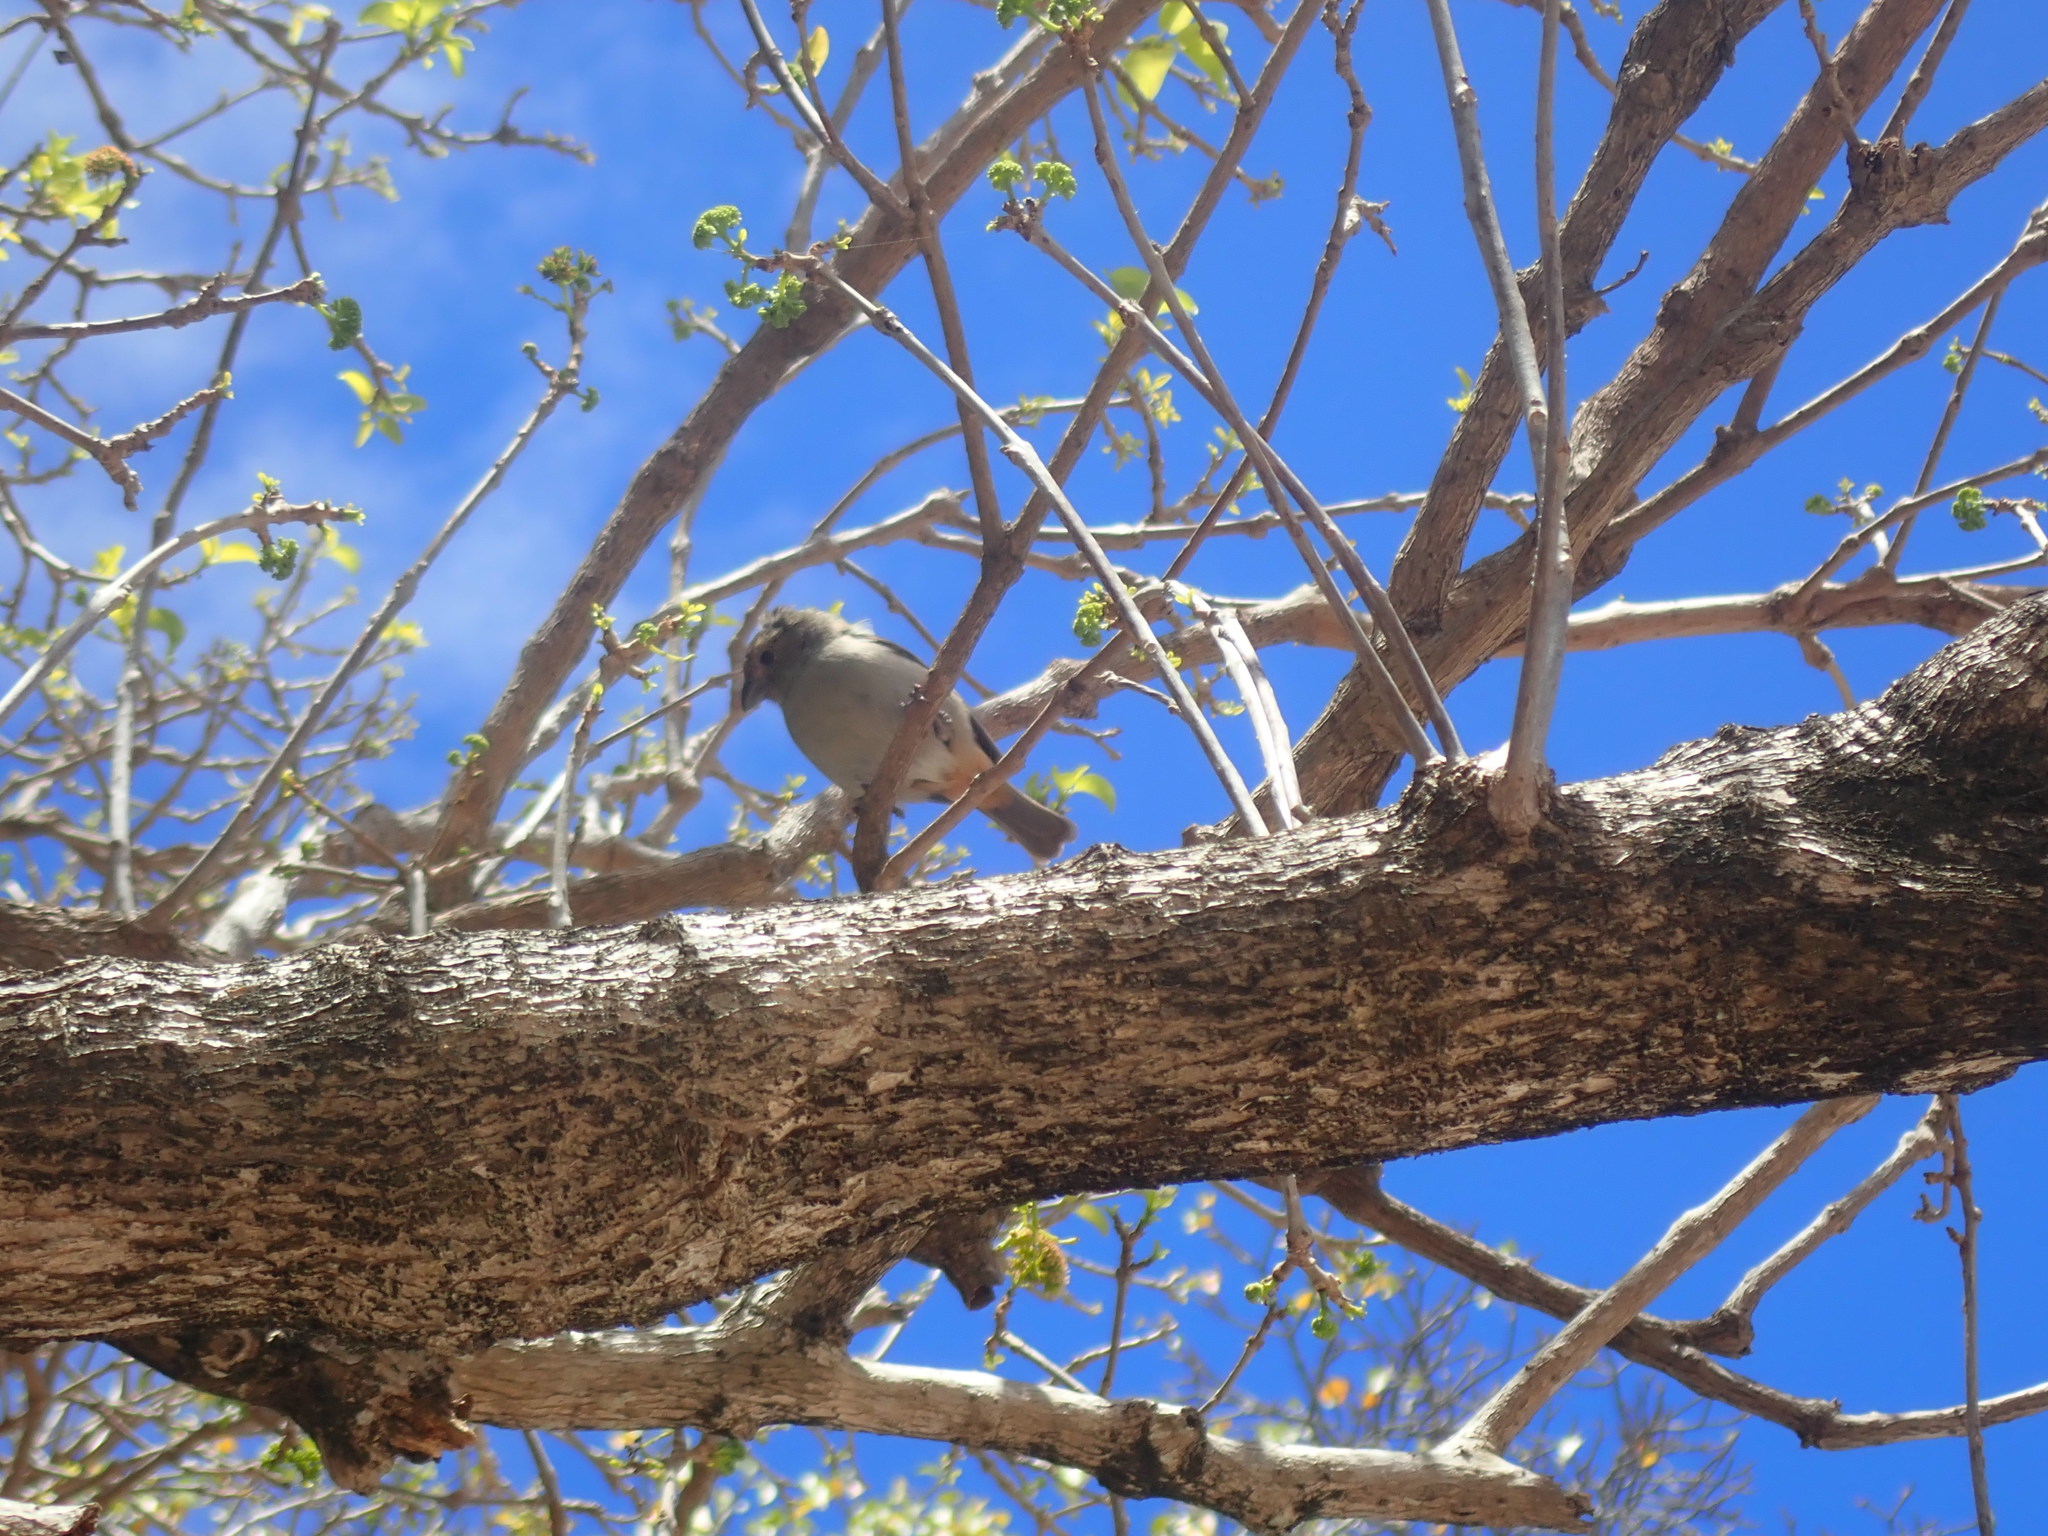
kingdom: Animalia
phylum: Chordata
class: Aves
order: Passeriformes
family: Thraupidae
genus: Loxigilla
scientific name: Loxigilla noctis
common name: Lesser antillean bullfinch
